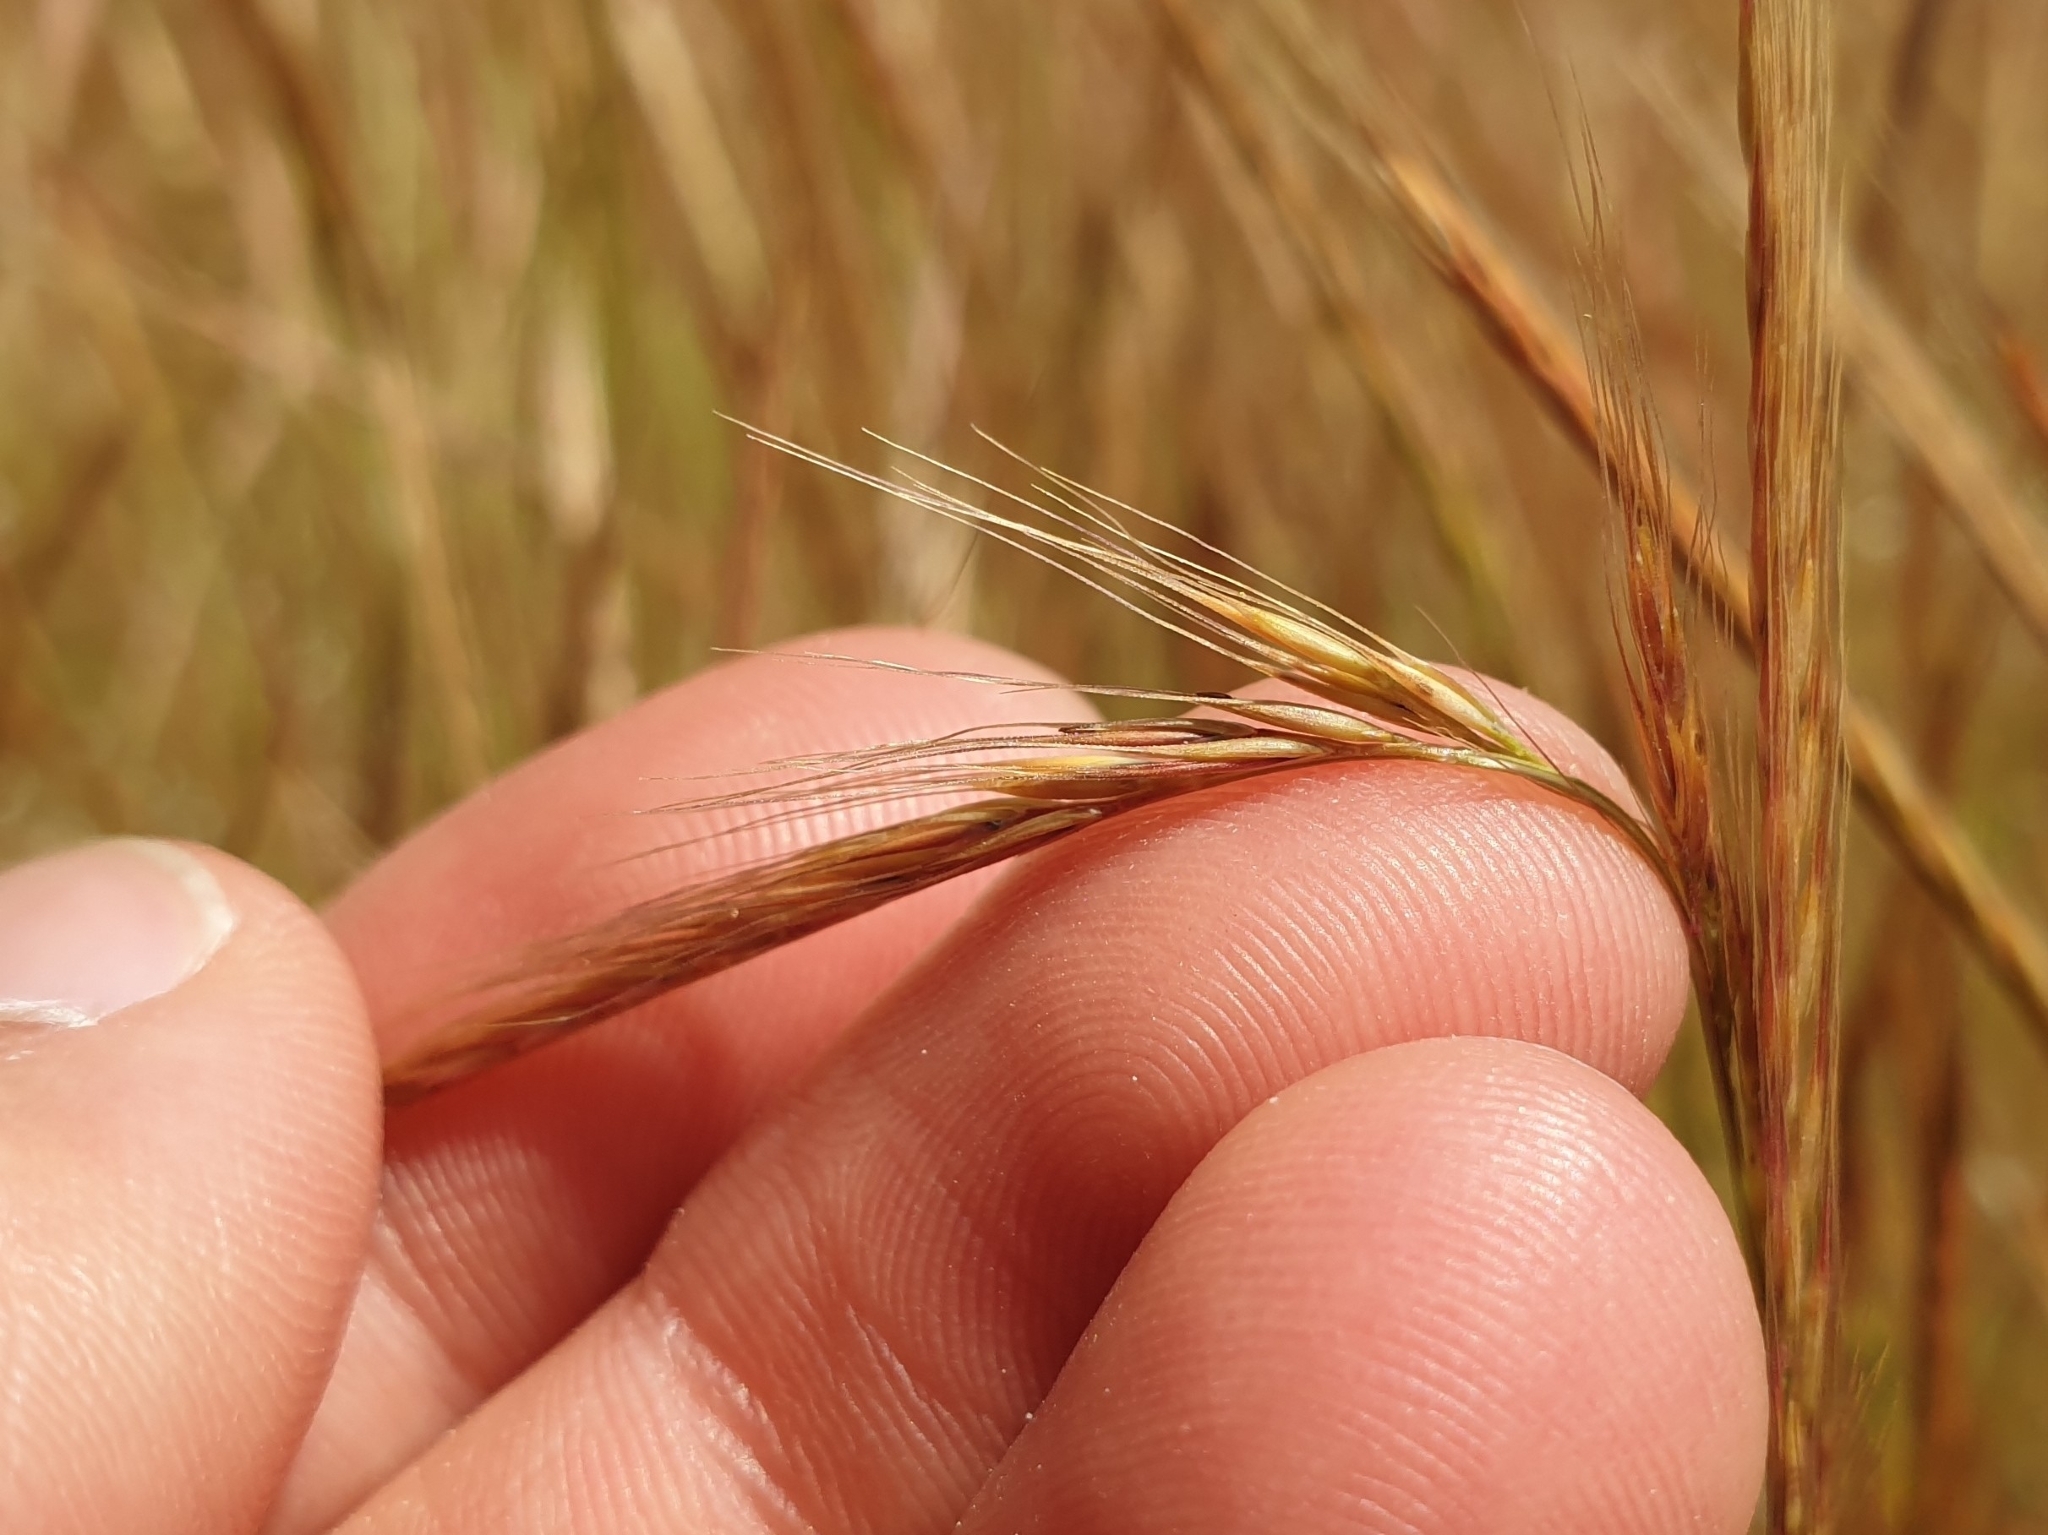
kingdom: Plantae
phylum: Tracheophyta
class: Liliopsida
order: Poales
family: Poaceae
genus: Festuca
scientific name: Festuca myuros
